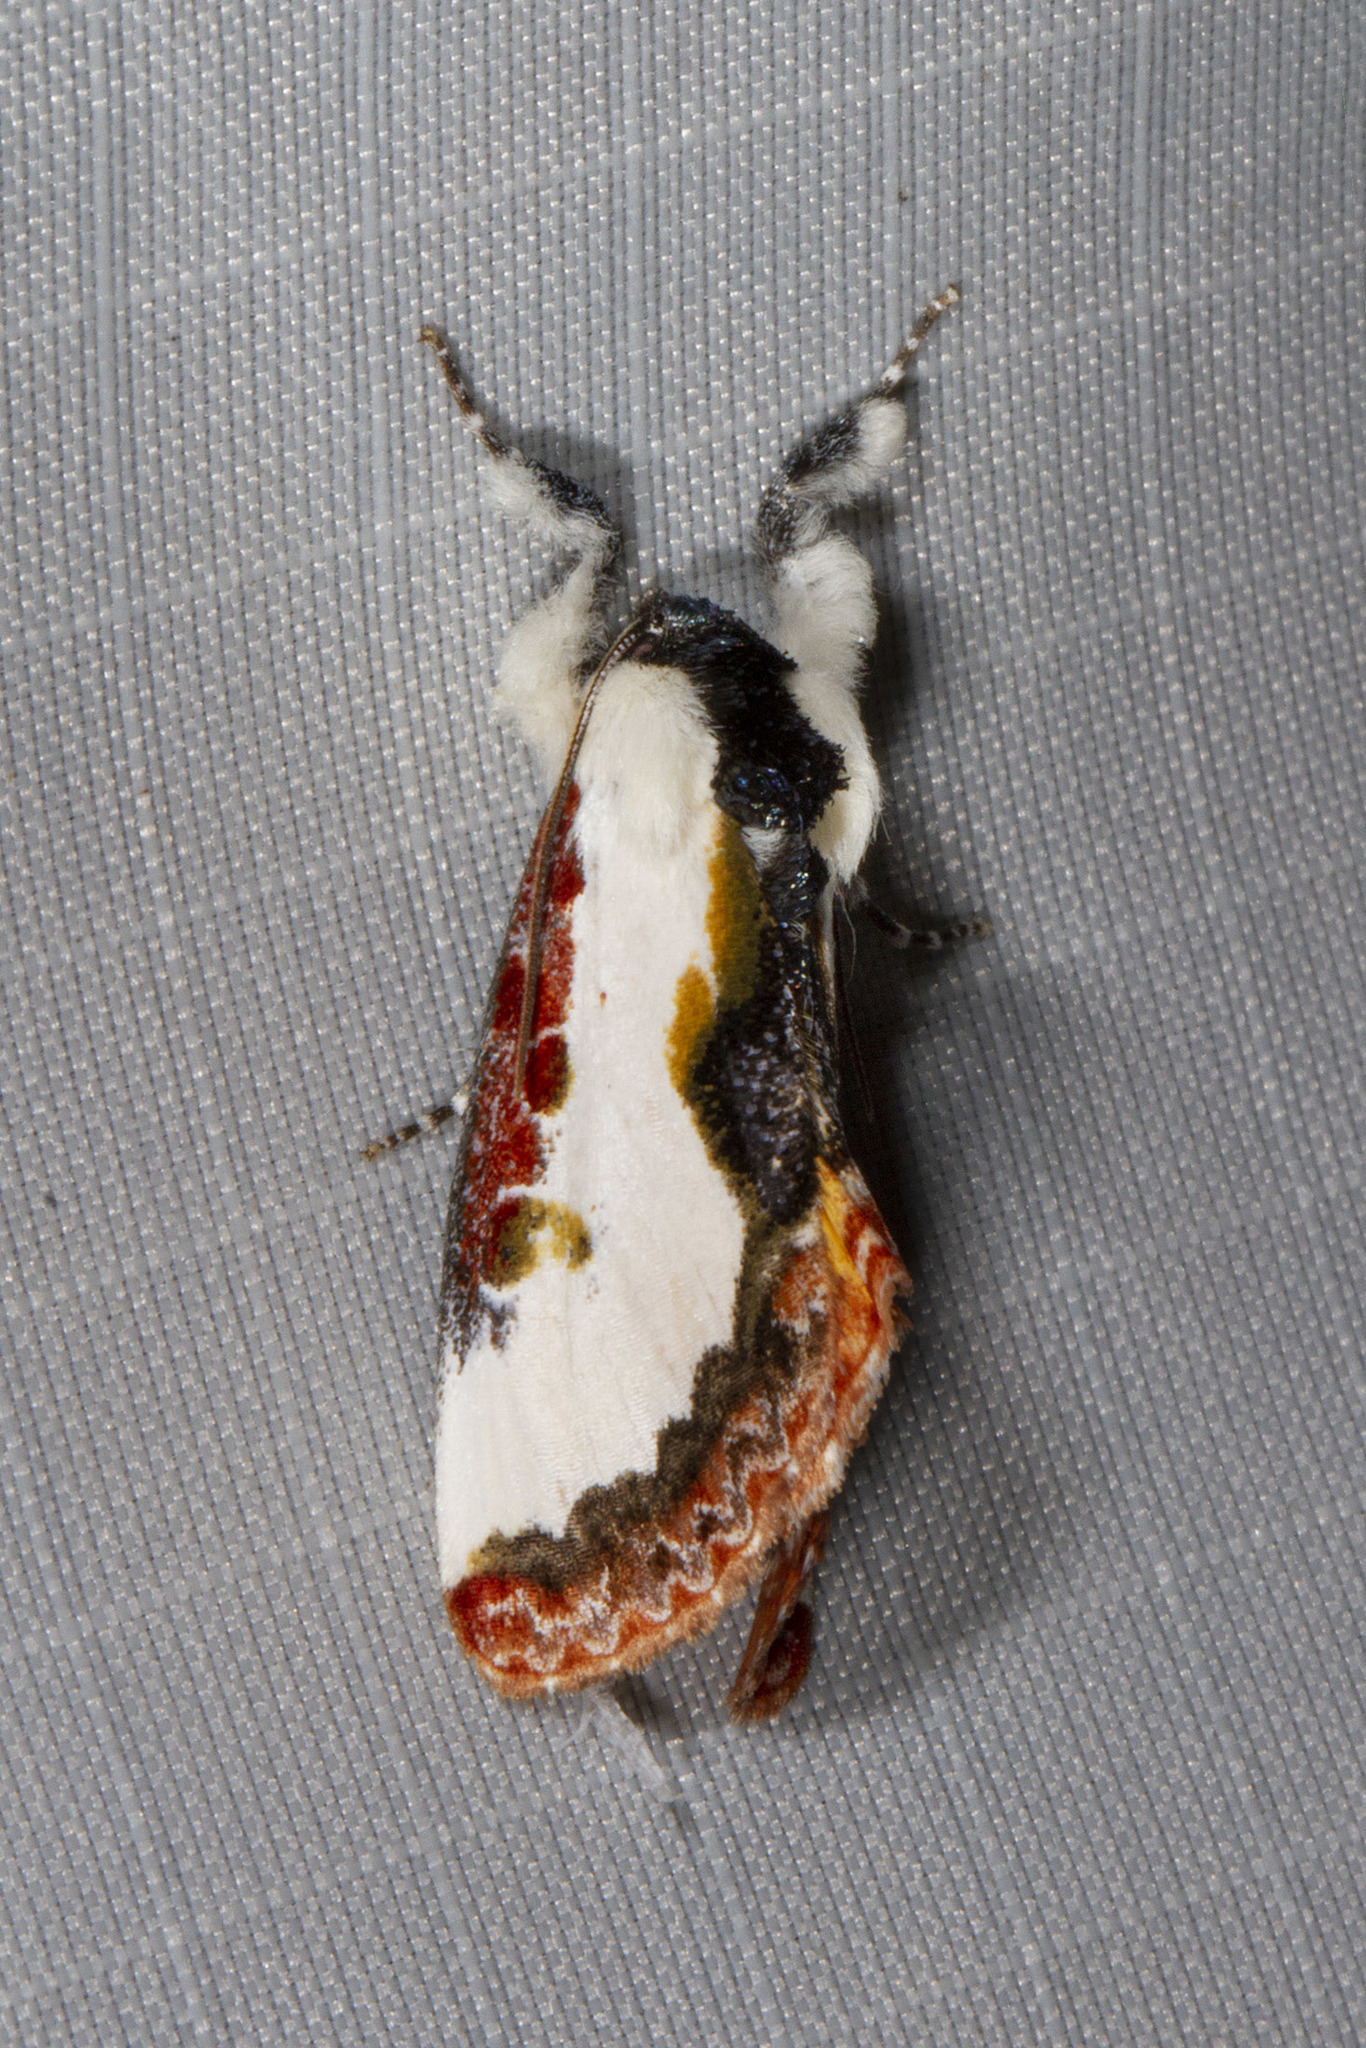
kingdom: Animalia
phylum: Arthropoda
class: Insecta
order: Lepidoptera
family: Noctuidae
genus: Eudryas
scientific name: Eudryas unio
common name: Pearly wood-nymph
